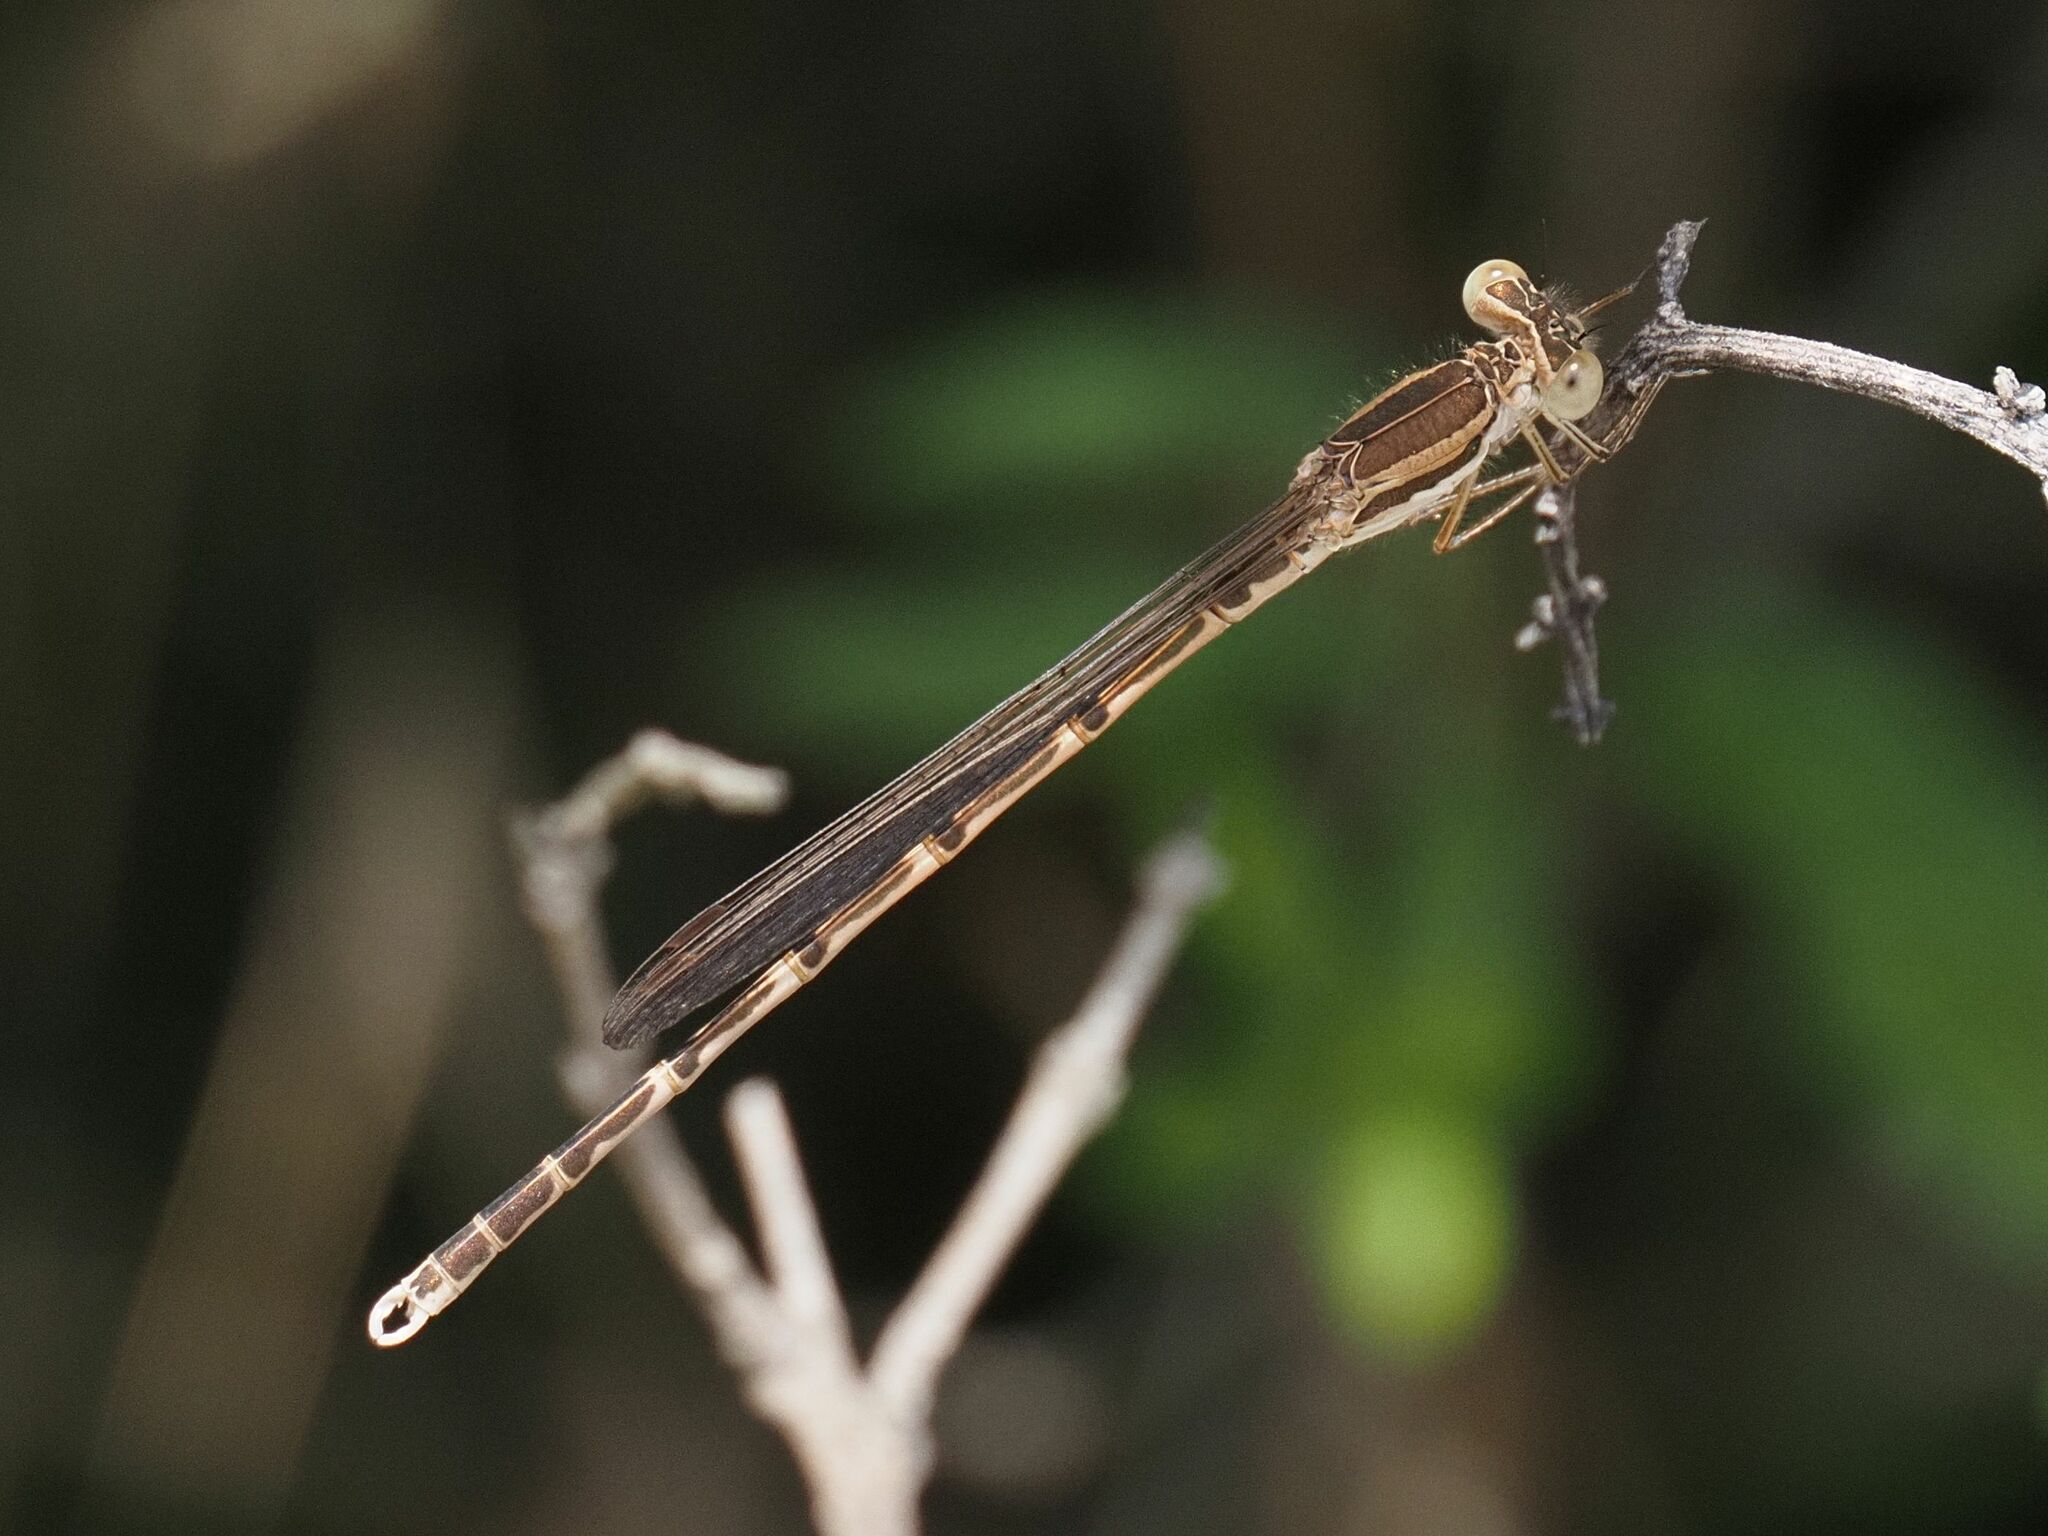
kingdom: Animalia
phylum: Arthropoda
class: Insecta
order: Odonata
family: Lestidae
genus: Sympecma
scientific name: Sympecma fusca
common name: Common winter damsel
